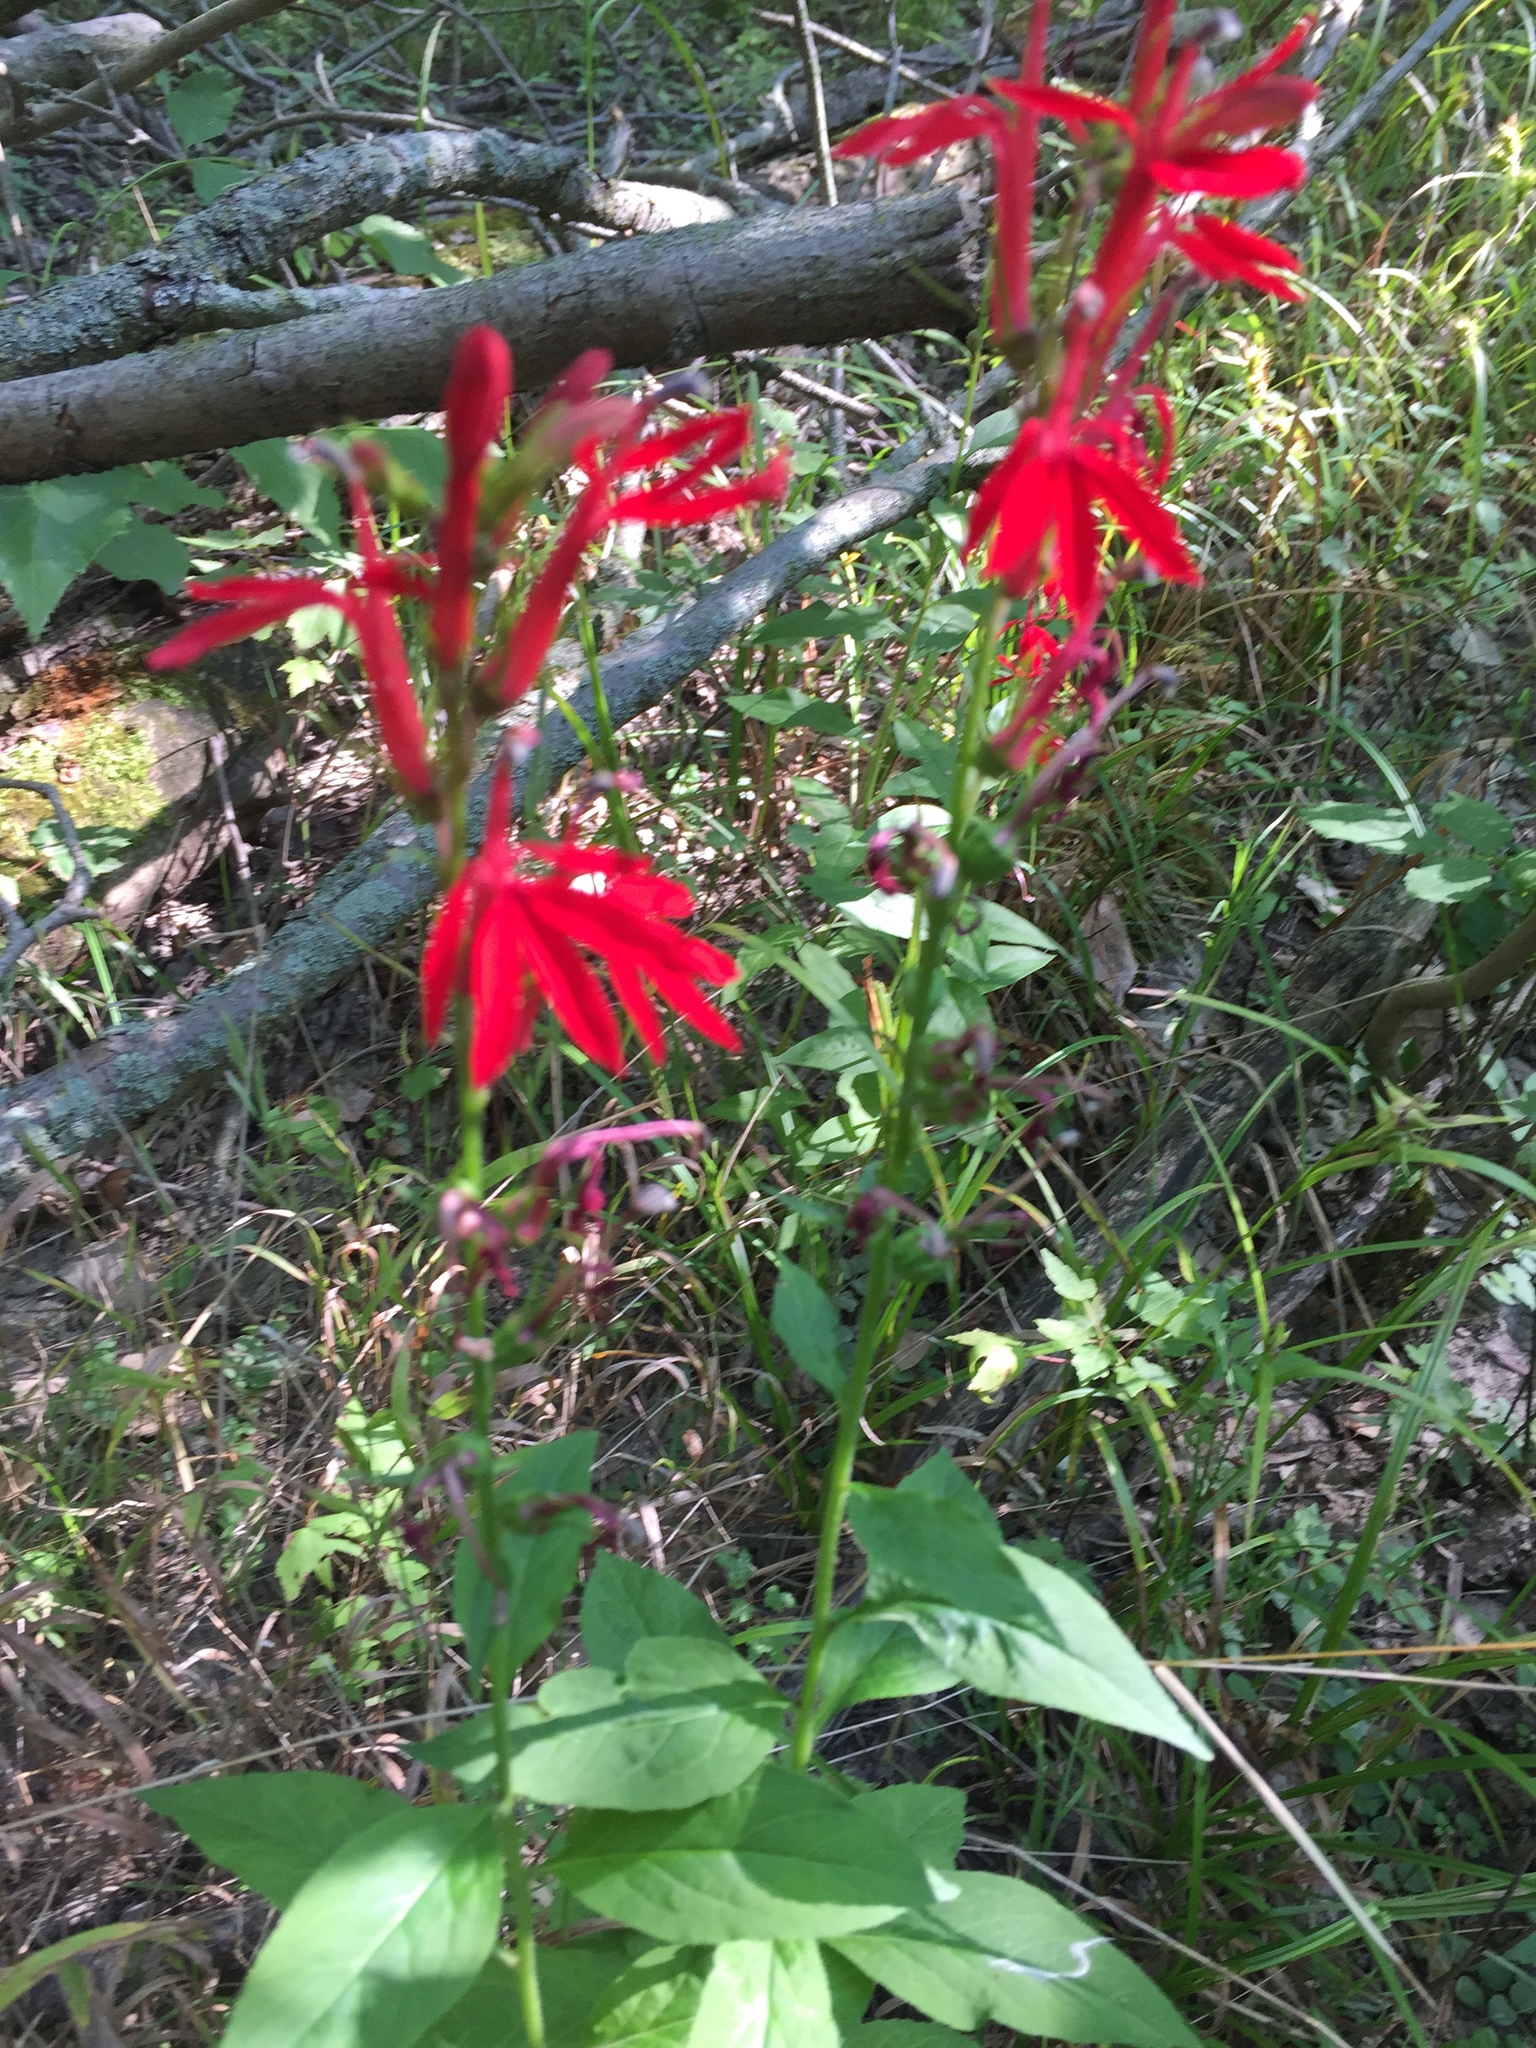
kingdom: Plantae
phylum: Tracheophyta
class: Magnoliopsida
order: Asterales
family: Campanulaceae
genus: Lobelia
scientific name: Lobelia cardinalis
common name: Cardinal flower
